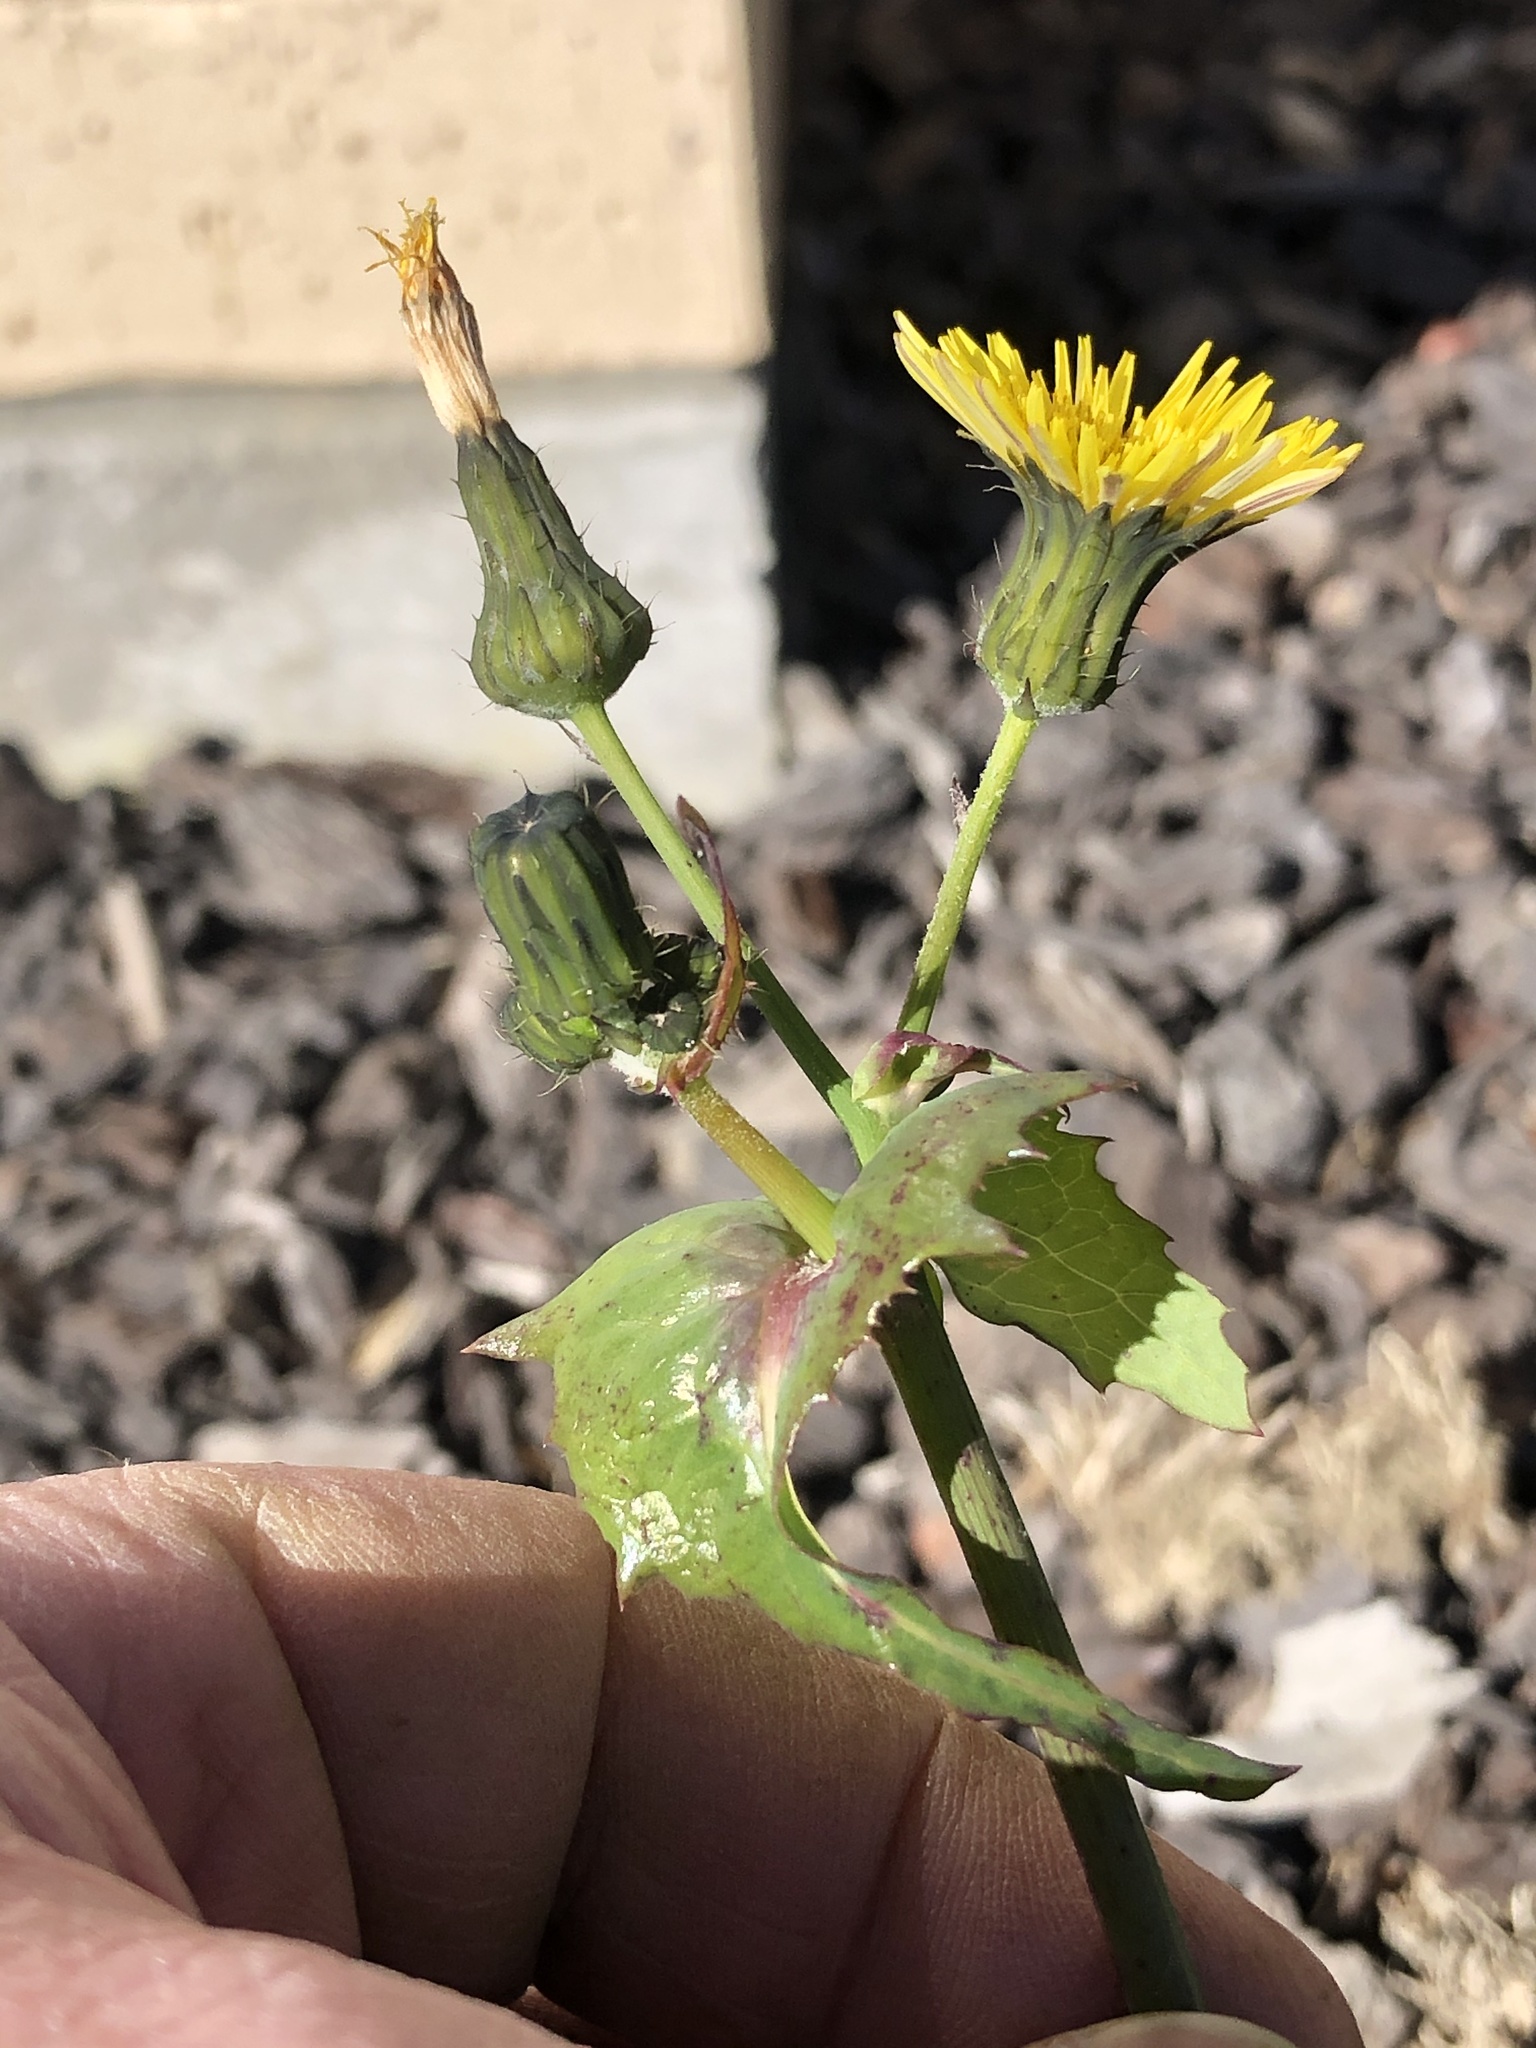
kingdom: Plantae
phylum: Tracheophyta
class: Magnoliopsida
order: Asterales
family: Asteraceae
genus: Sonchus
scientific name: Sonchus oleraceus
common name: Common sowthistle
